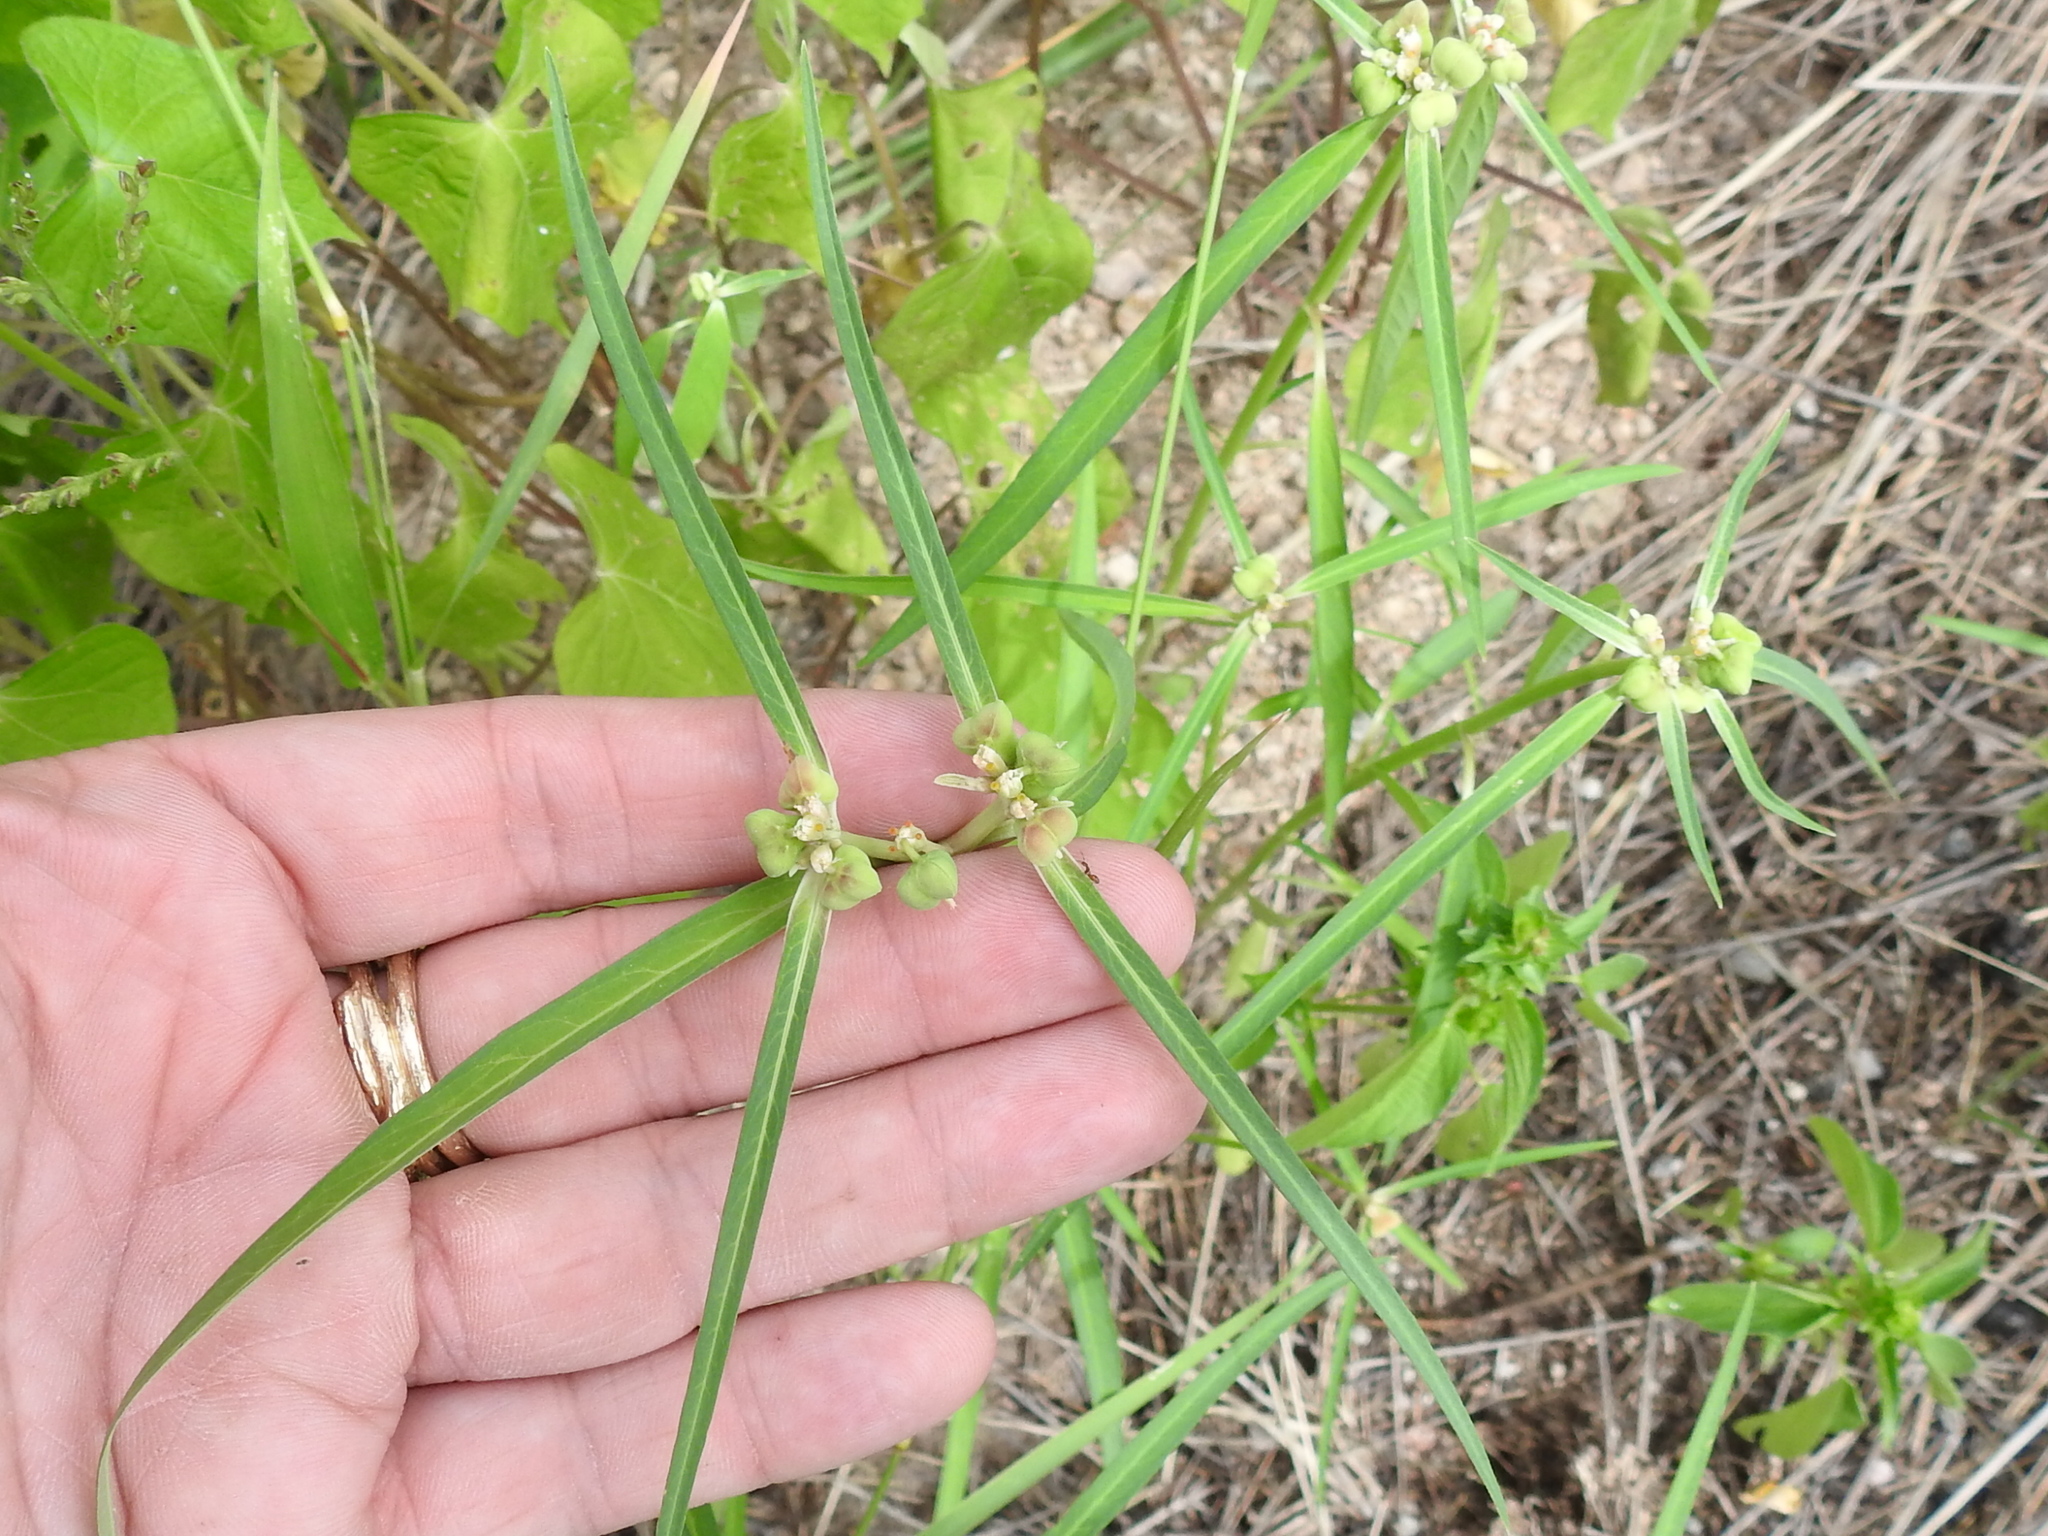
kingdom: Plantae
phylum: Tracheophyta
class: Magnoliopsida
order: Malpighiales
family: Euphorbiaceae
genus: Euphorbia
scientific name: Euphorbia heterophylla
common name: Mexican fireplant
